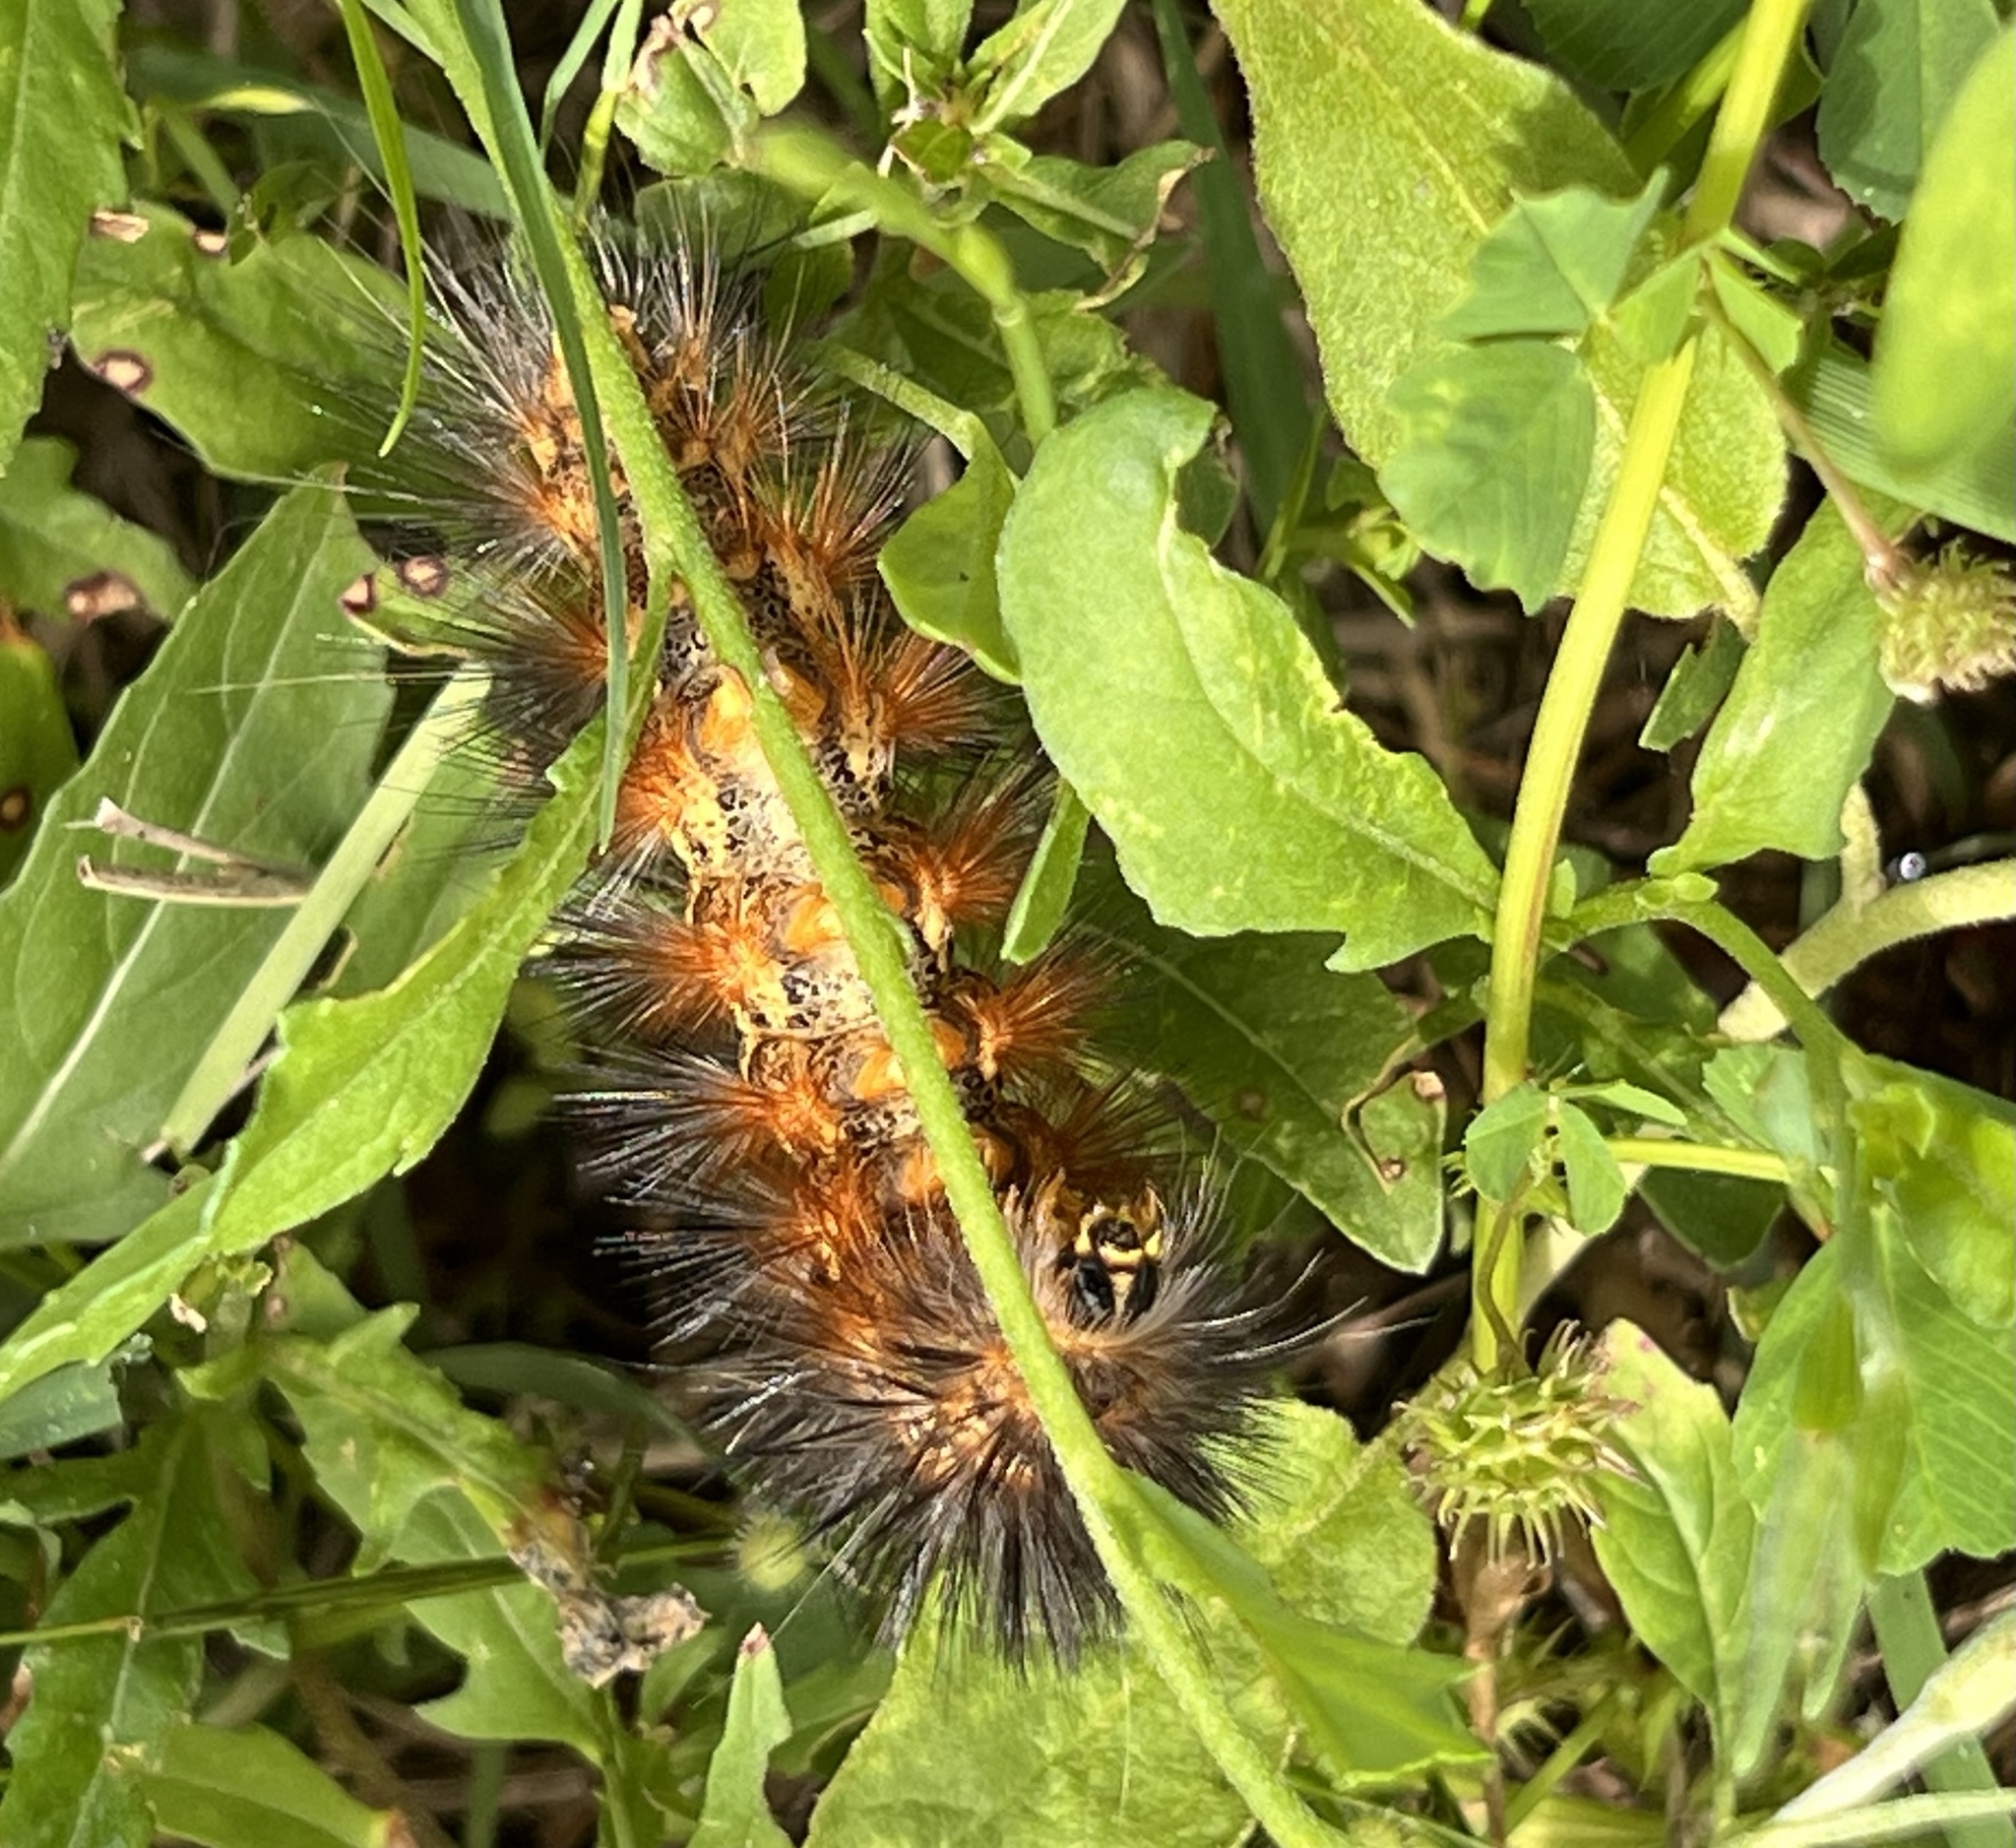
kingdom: Animalia
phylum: Arthropoda
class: Insecta
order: Lepidoptera
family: Erebidae
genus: Estigmene
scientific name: Estigmene acrea
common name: Salt marsh moth
